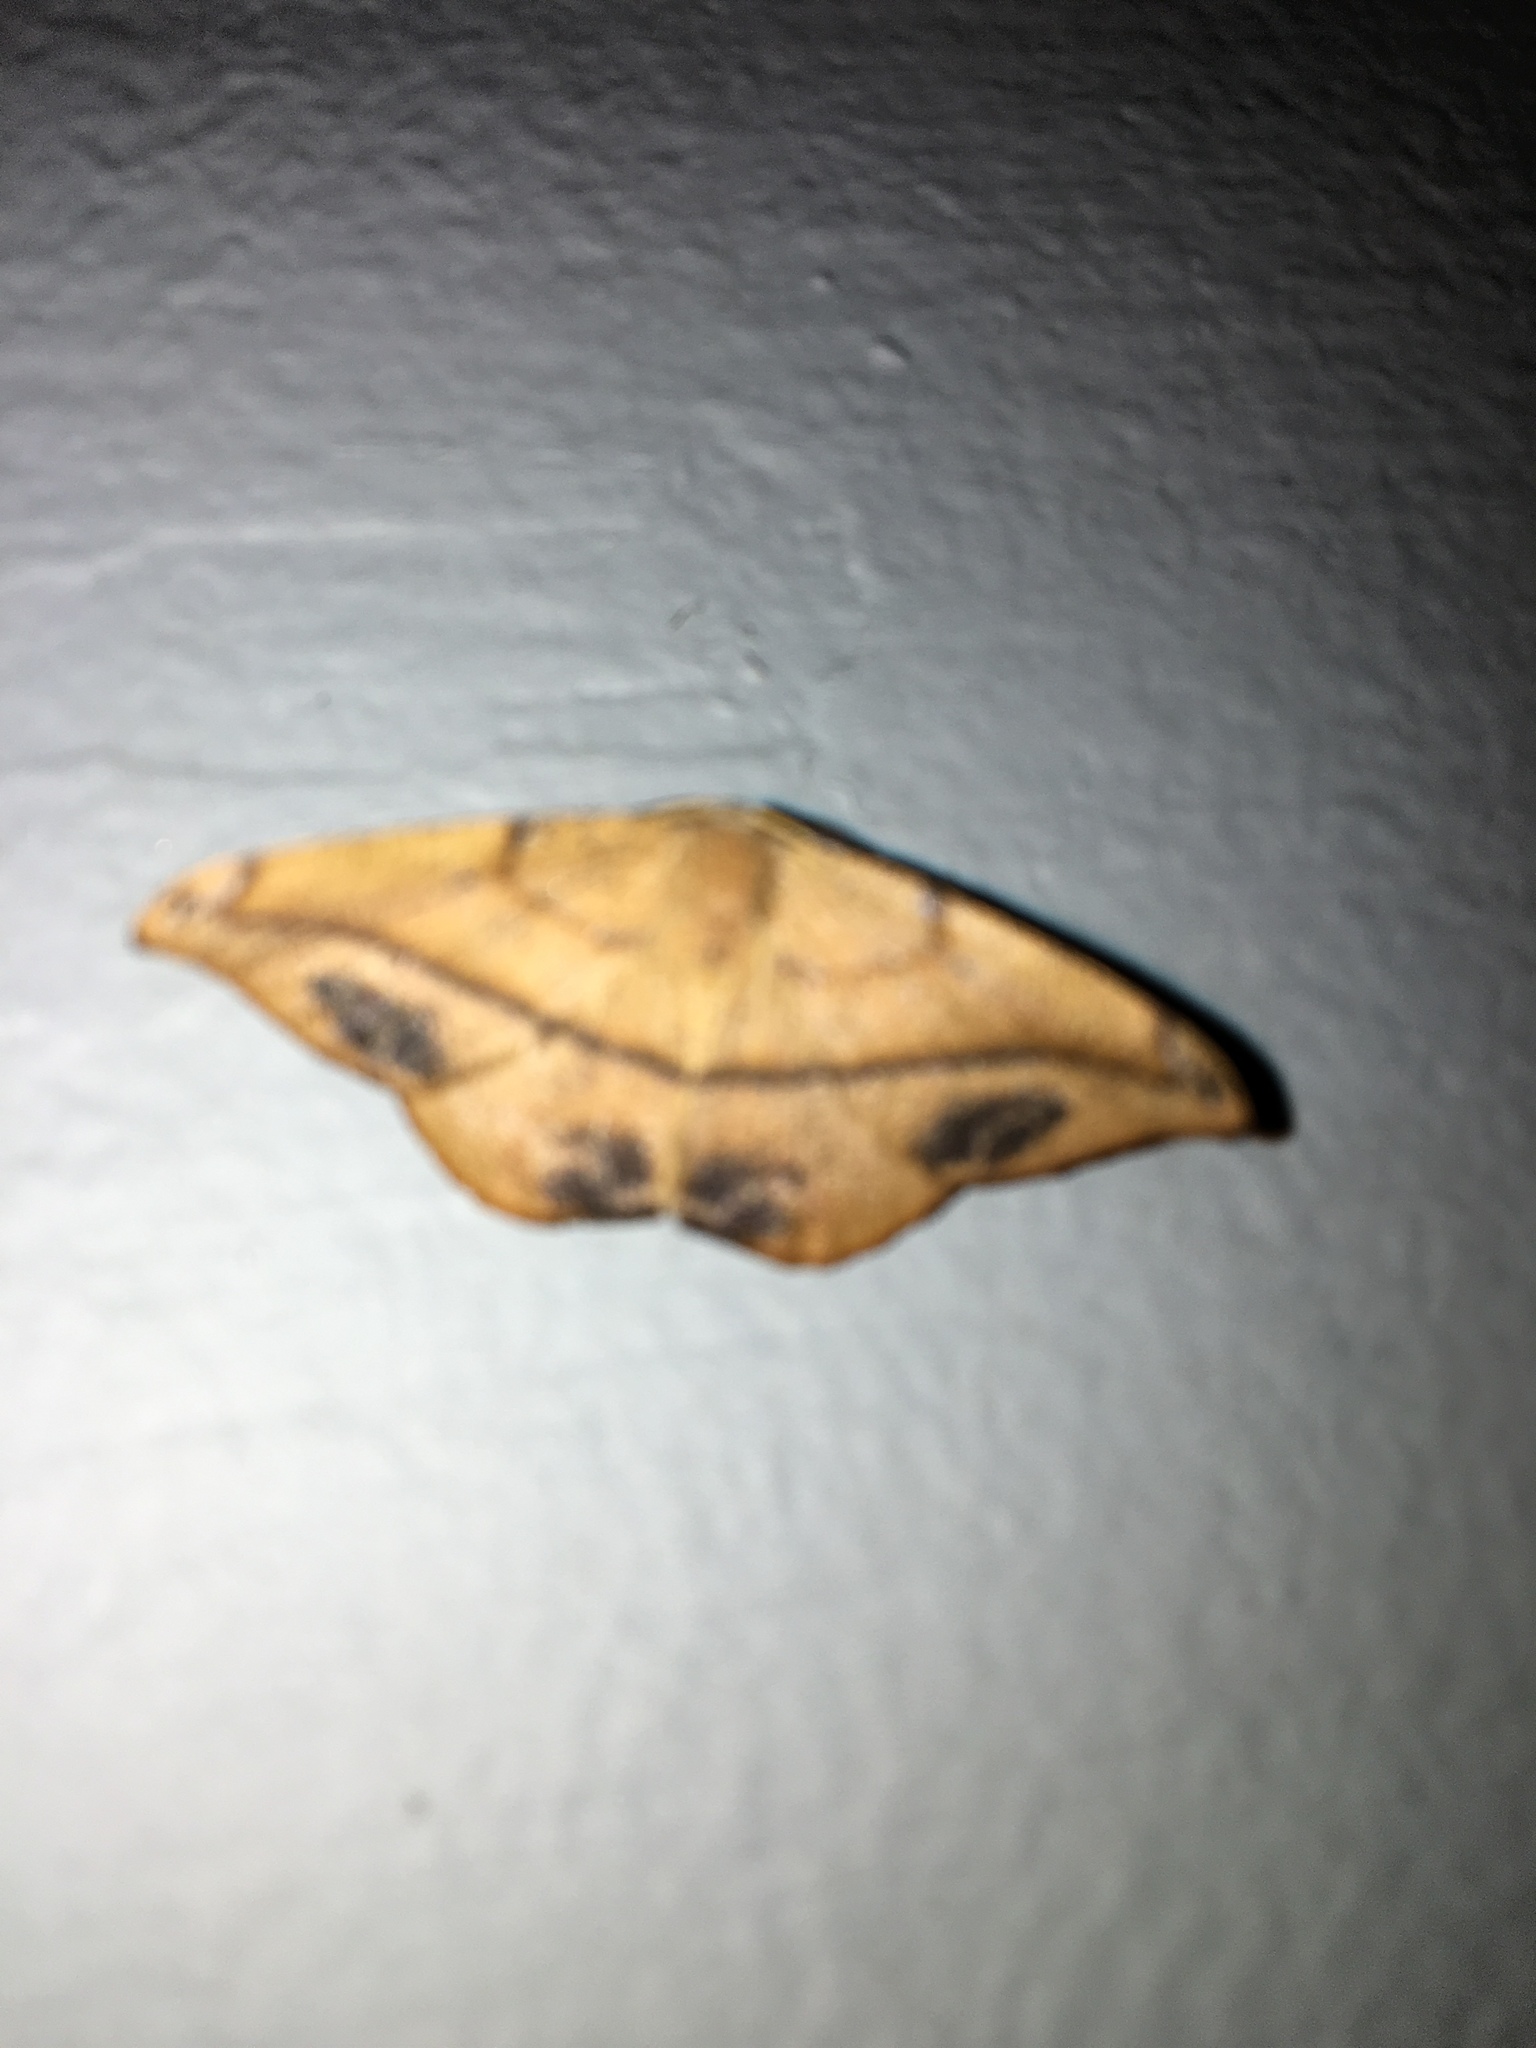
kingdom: Animalia
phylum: Arthropoda
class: Insecta
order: Lepidoptera
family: Geometridae
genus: Patalene
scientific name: Patalene olyzonaria
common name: Juniper geometer moth
